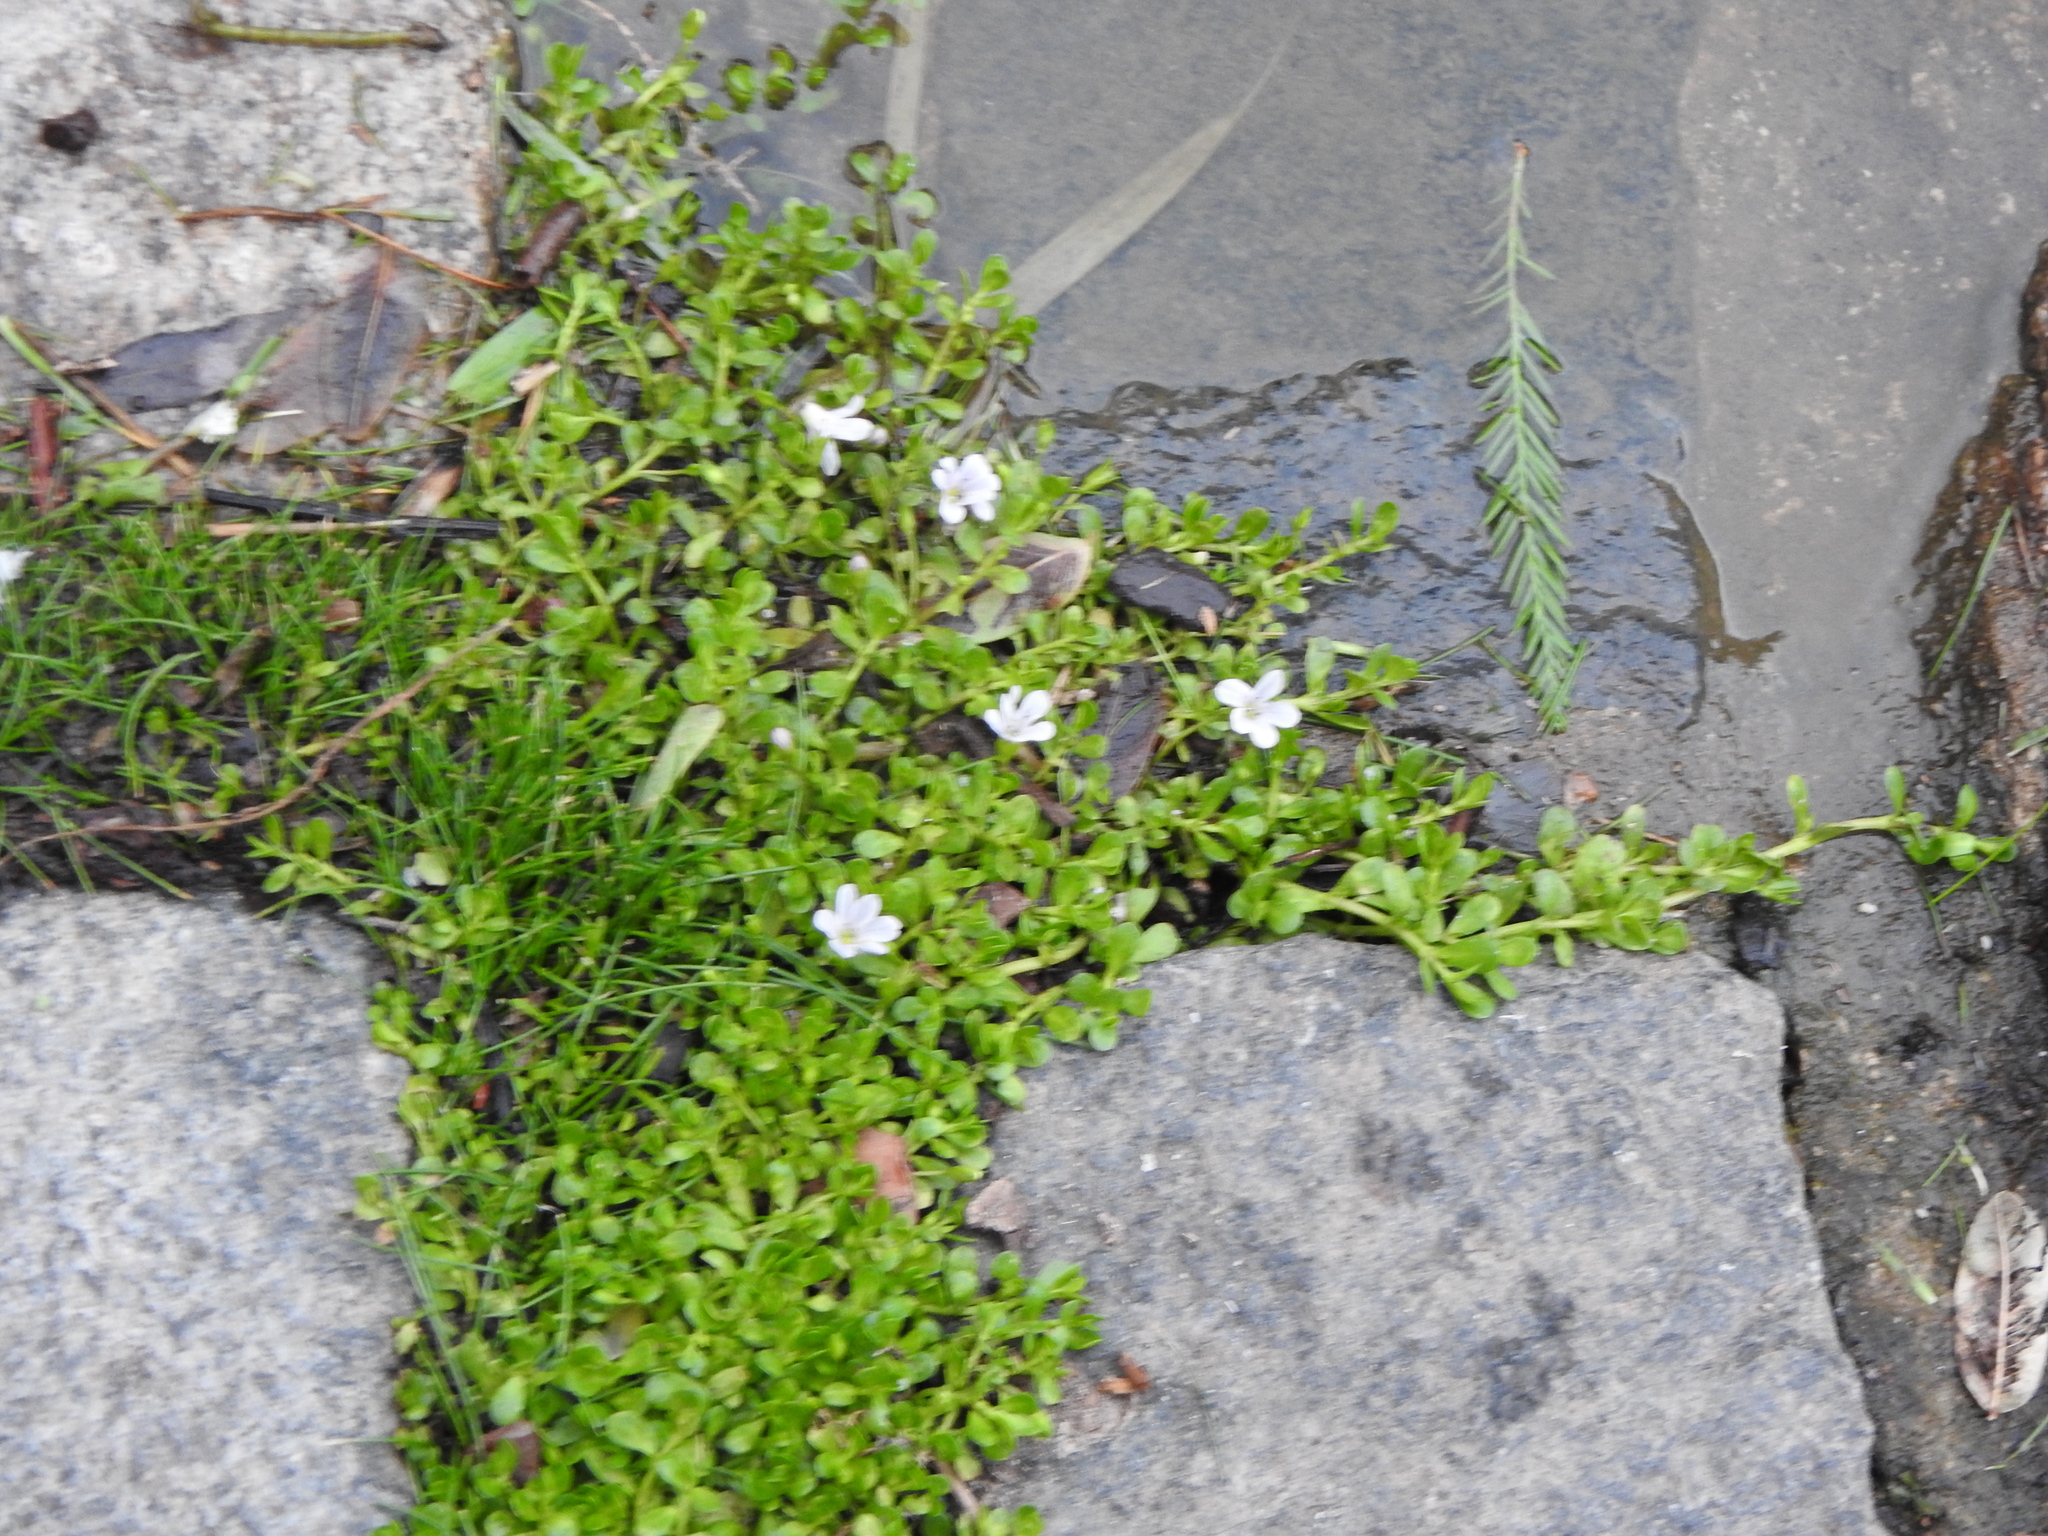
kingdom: Plantae
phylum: Tracheophyta
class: Magnoliopsida
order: Lamiales
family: Plantaginaceae
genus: Bacopa
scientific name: Bacopa monnieri
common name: Indian-pennywort
